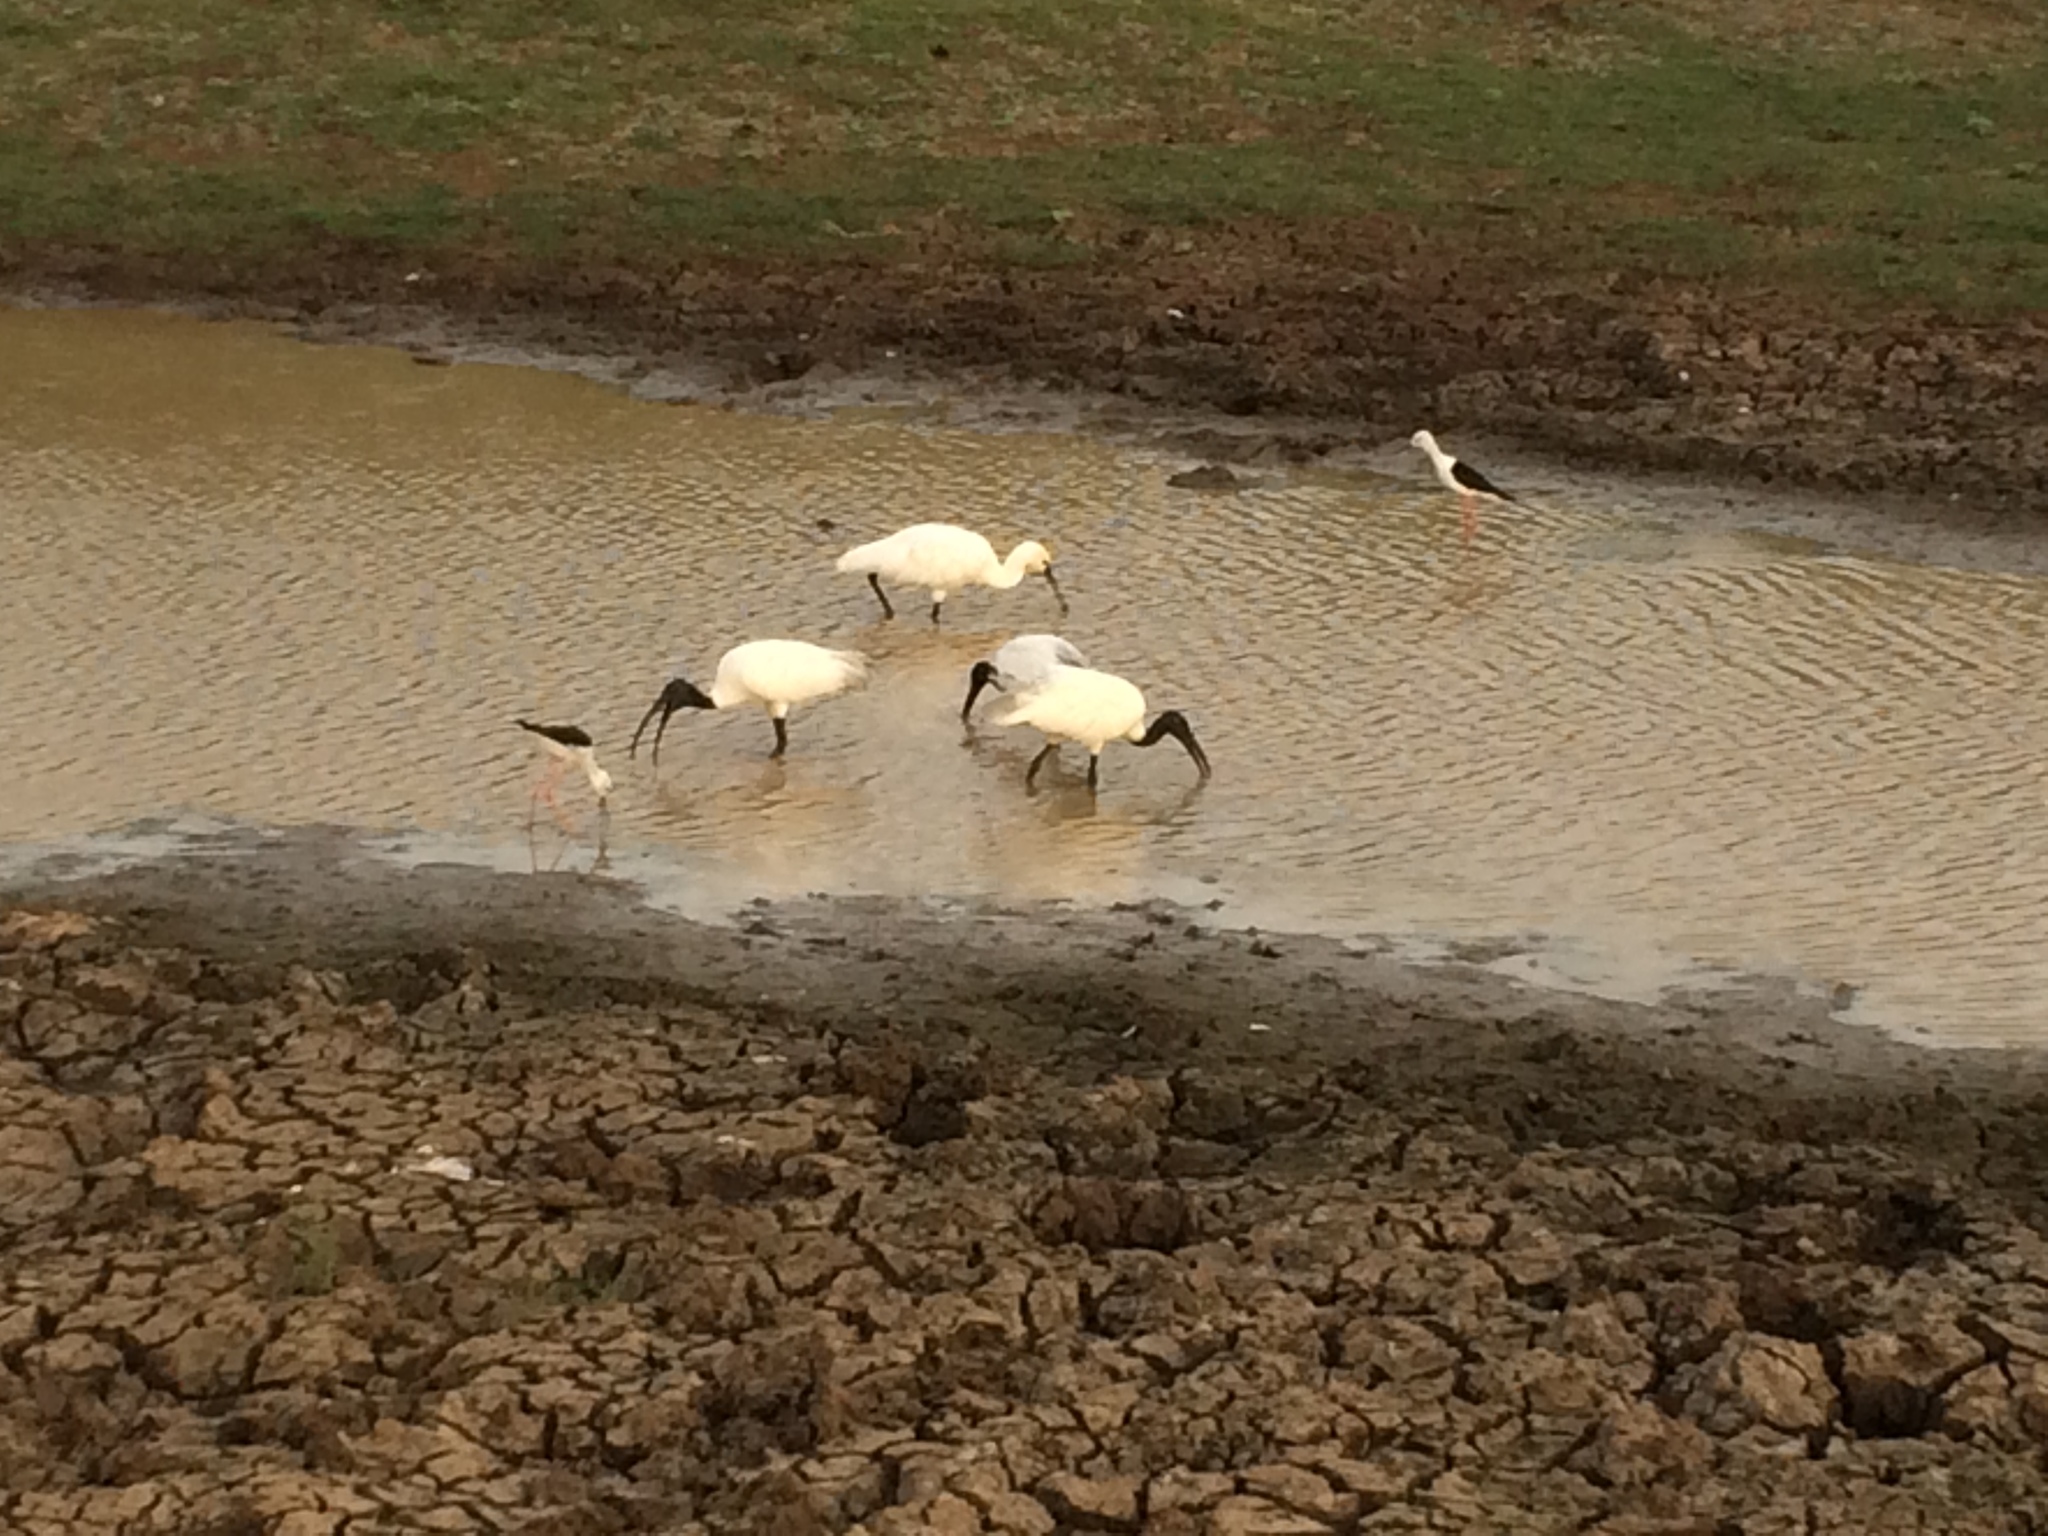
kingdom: Animalia
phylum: Chordata
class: Aves
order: Charadriiformes
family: Recurvirostridae
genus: Himantopus
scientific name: Himantopus himantopus
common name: Black-winged stilt
